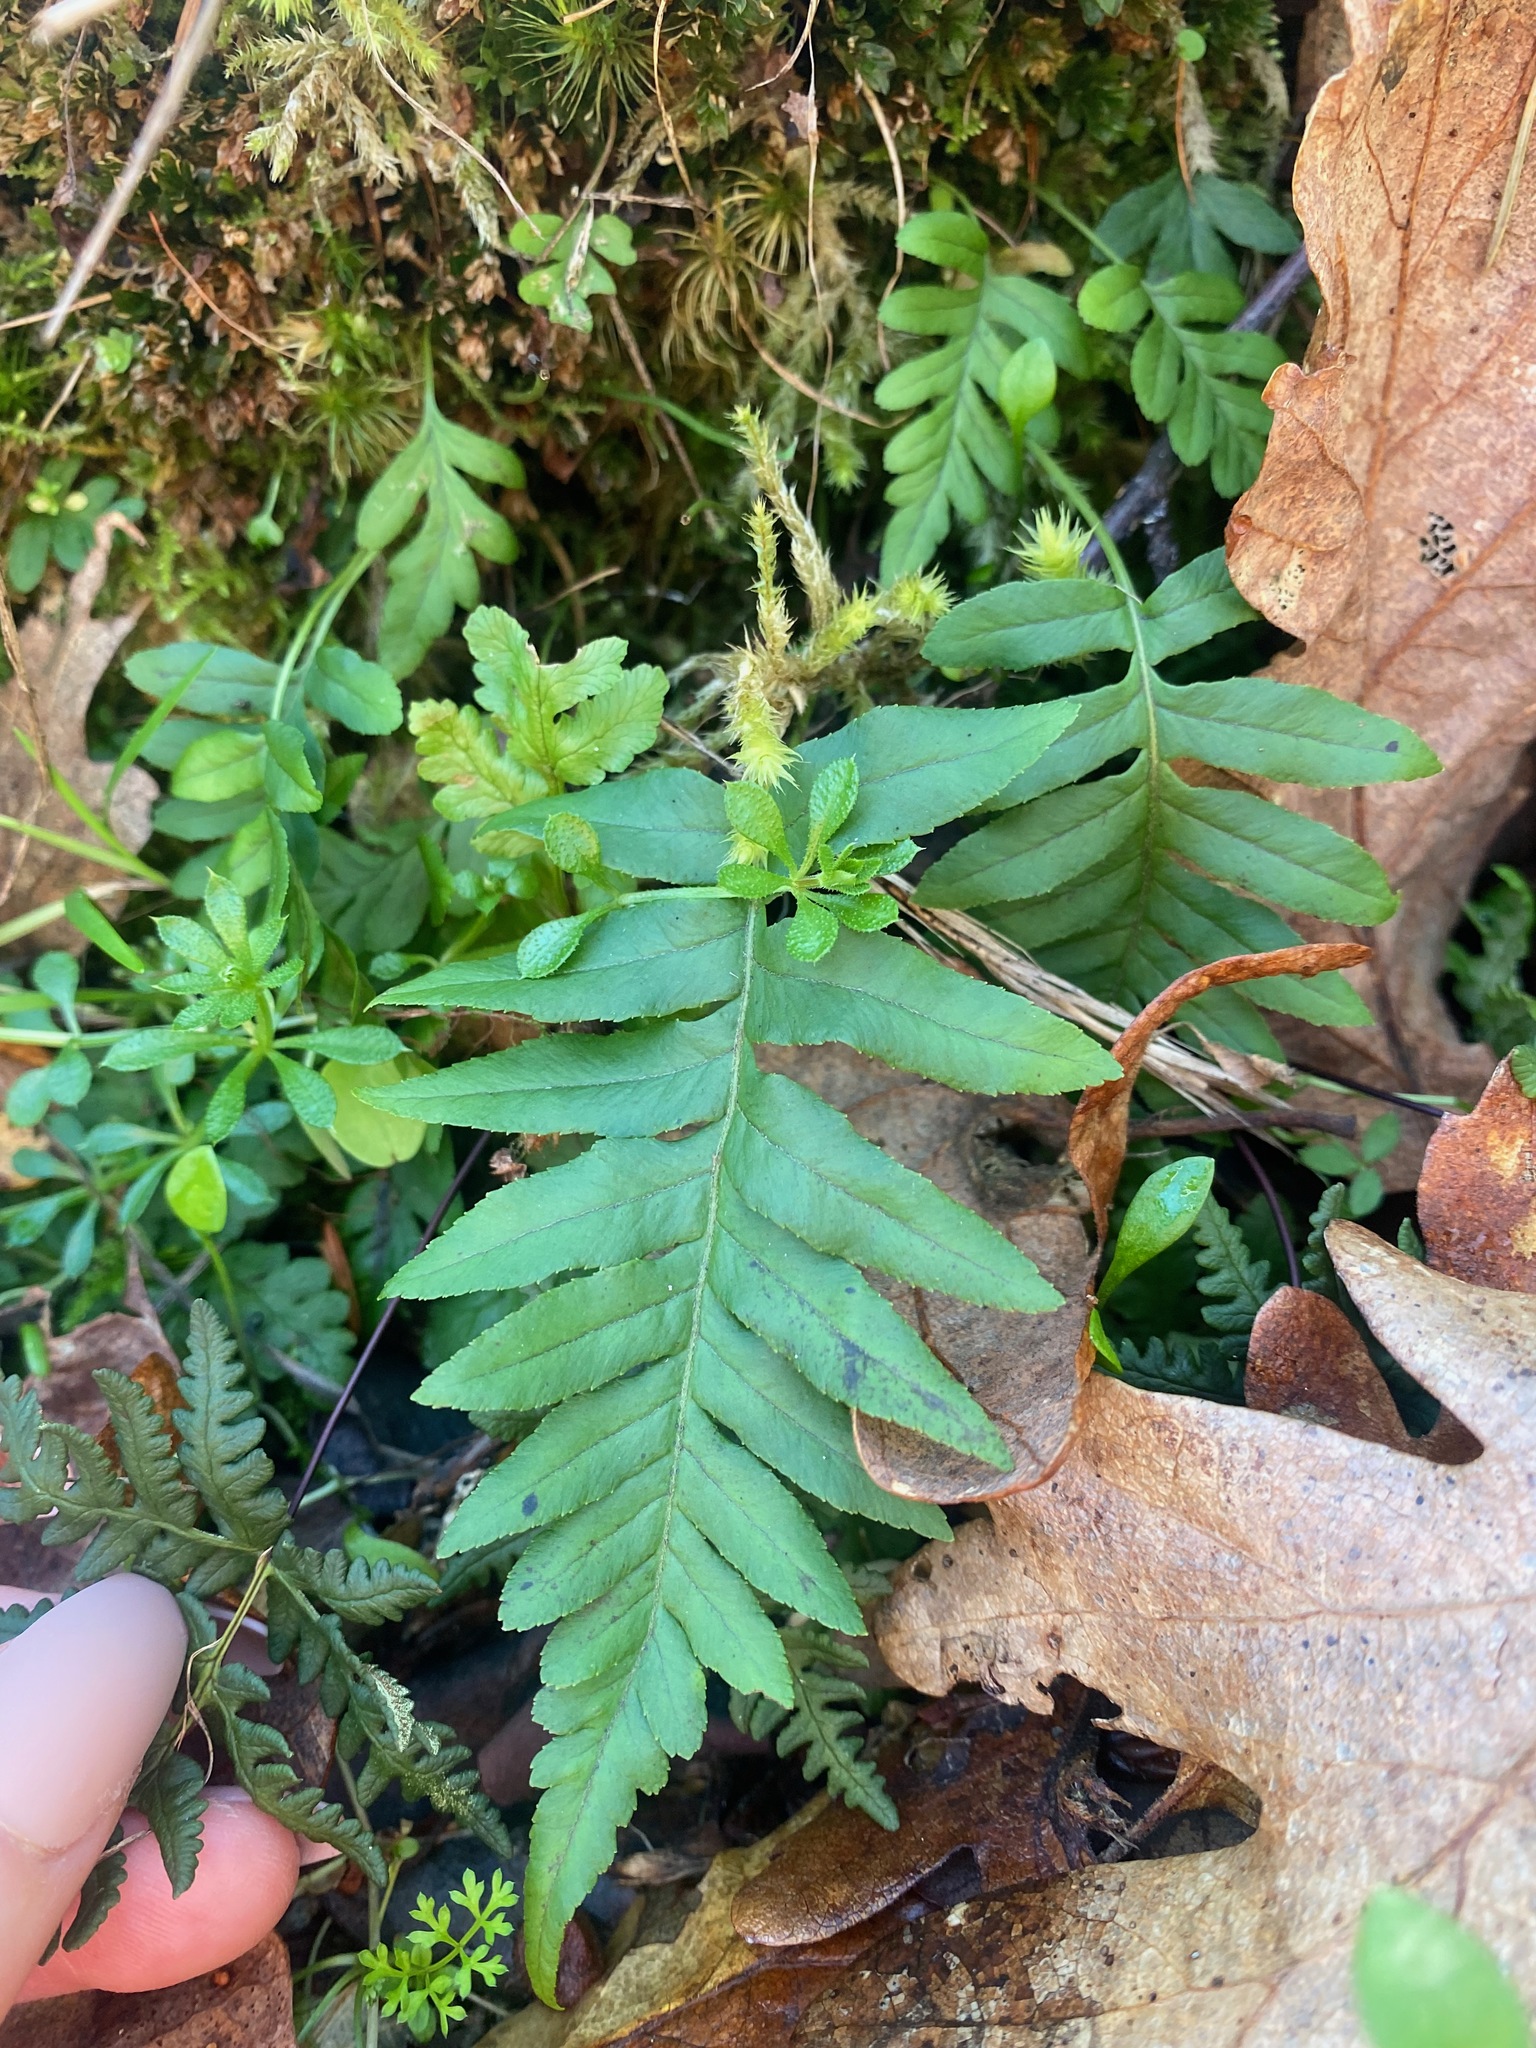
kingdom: Plantae
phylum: Tracheophyta
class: Polypodiopsida
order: Polypodiales
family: Polypodiaceae
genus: Polypodium
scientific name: Polypodium glycyrrhiza
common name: Licorice fern
